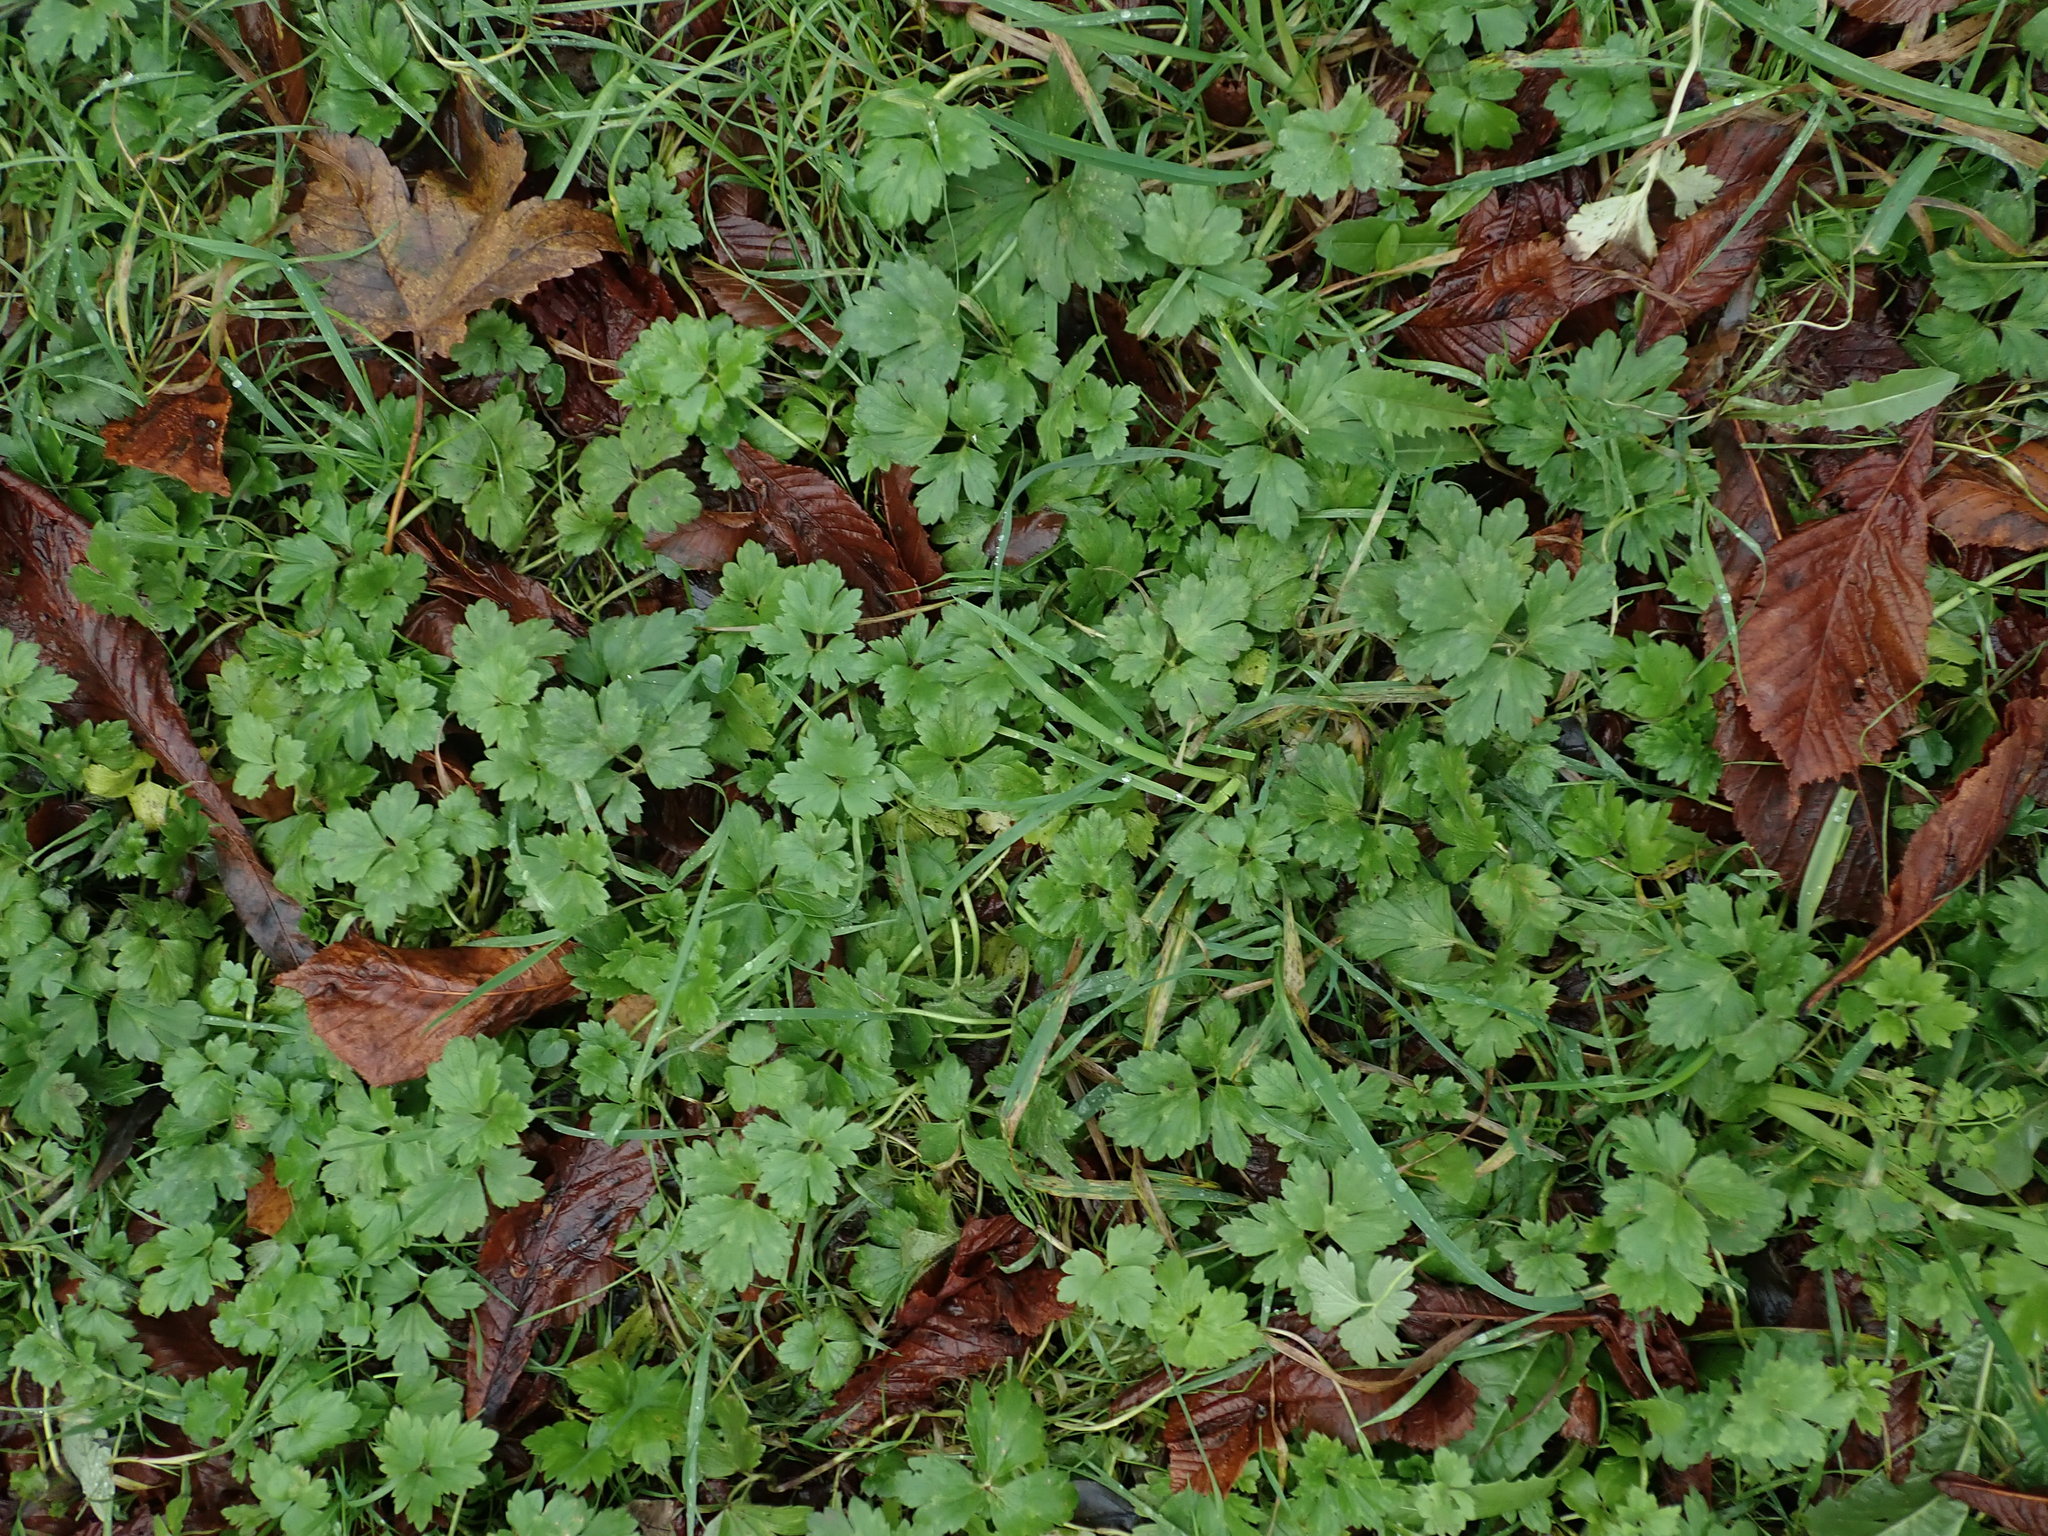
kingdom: Plantae
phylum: Tracheophyta
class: Magnoliopsida
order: Ranunculales
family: Ranunculaceae
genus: Ranunculus
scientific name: Ranunculus repens
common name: Creeping buttercup
